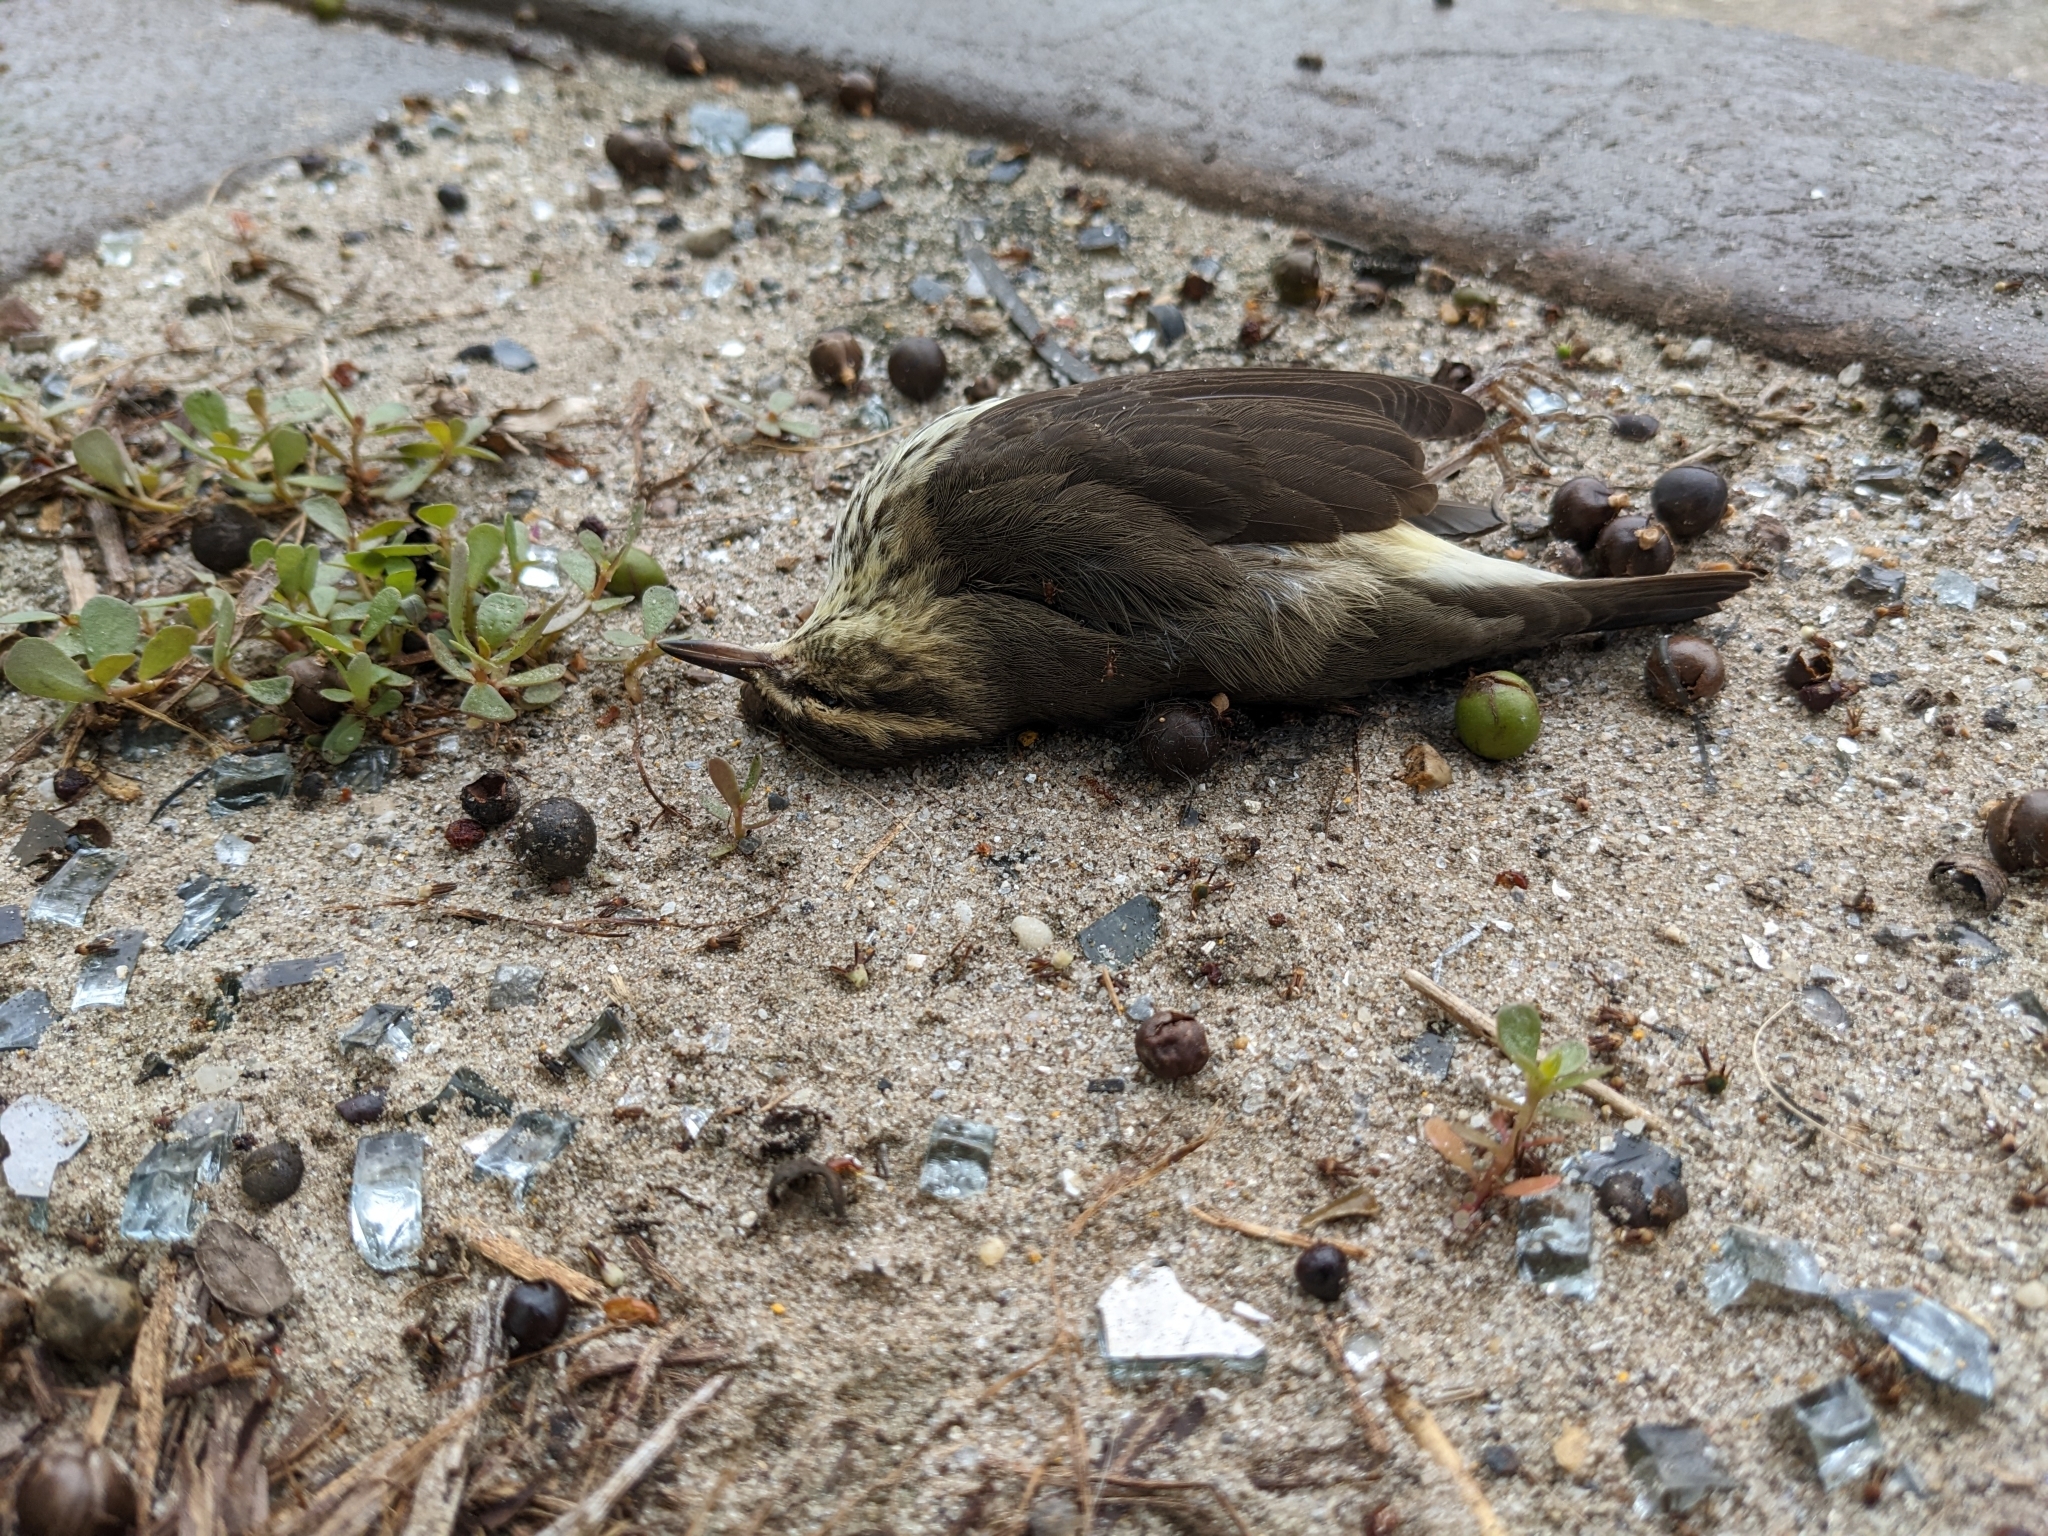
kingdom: Animalia
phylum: Chordata
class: Aves
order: Passeriformes
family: Parulidae
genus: Parkesia
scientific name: Parkesia noveboracensis
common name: Northern waterthrush
